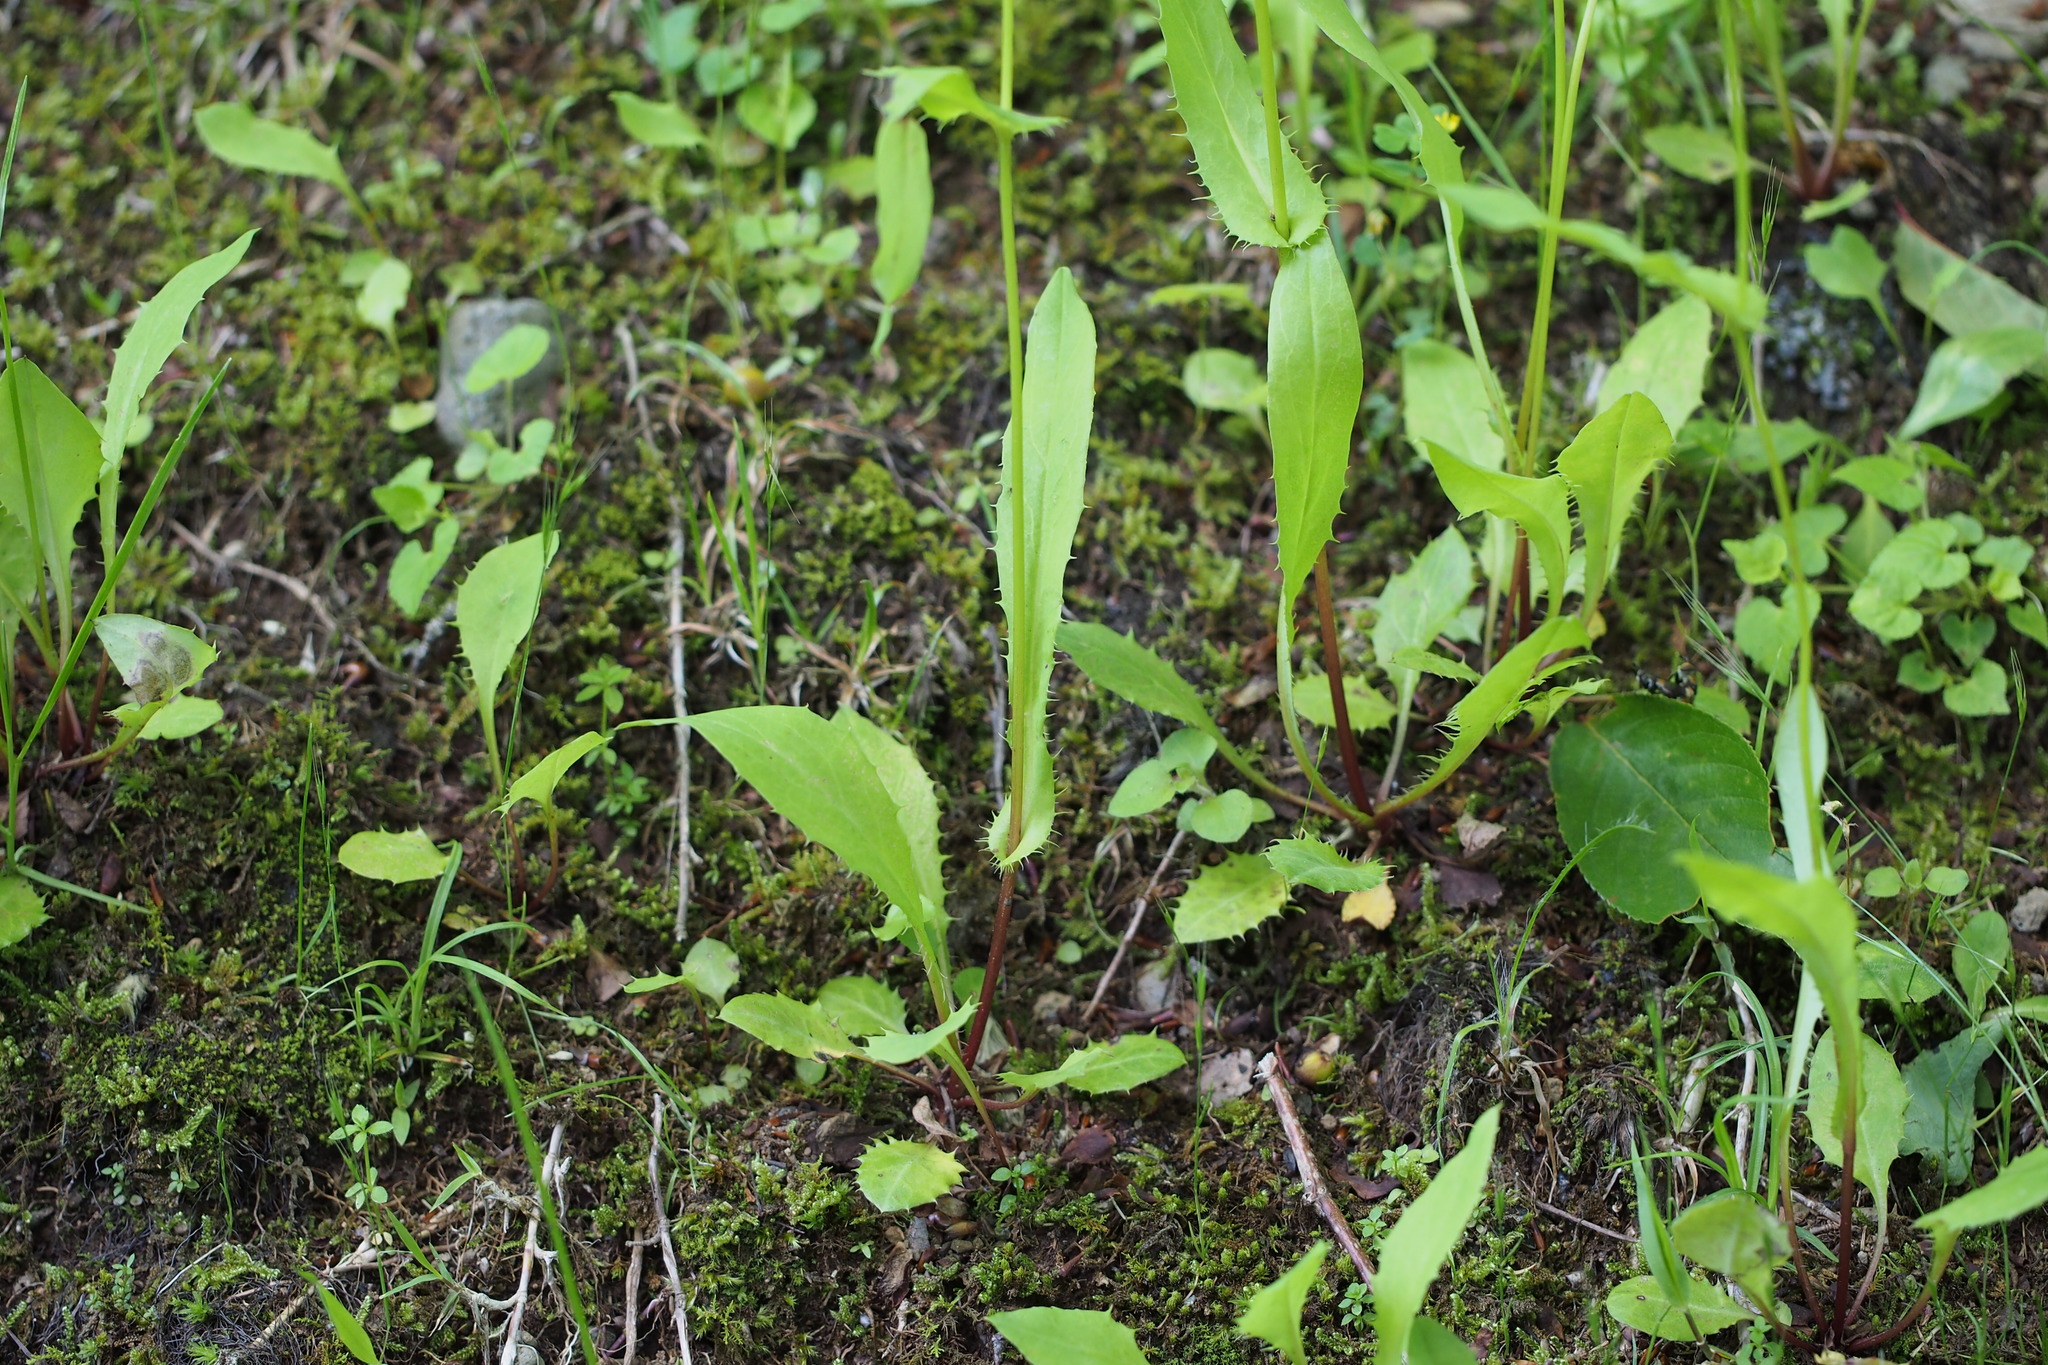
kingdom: Plantae
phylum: Tracheophyta
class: Magnoliopsida
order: Asterales
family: Asteraceae
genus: Ixeridium
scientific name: Ixeridium dentatum
